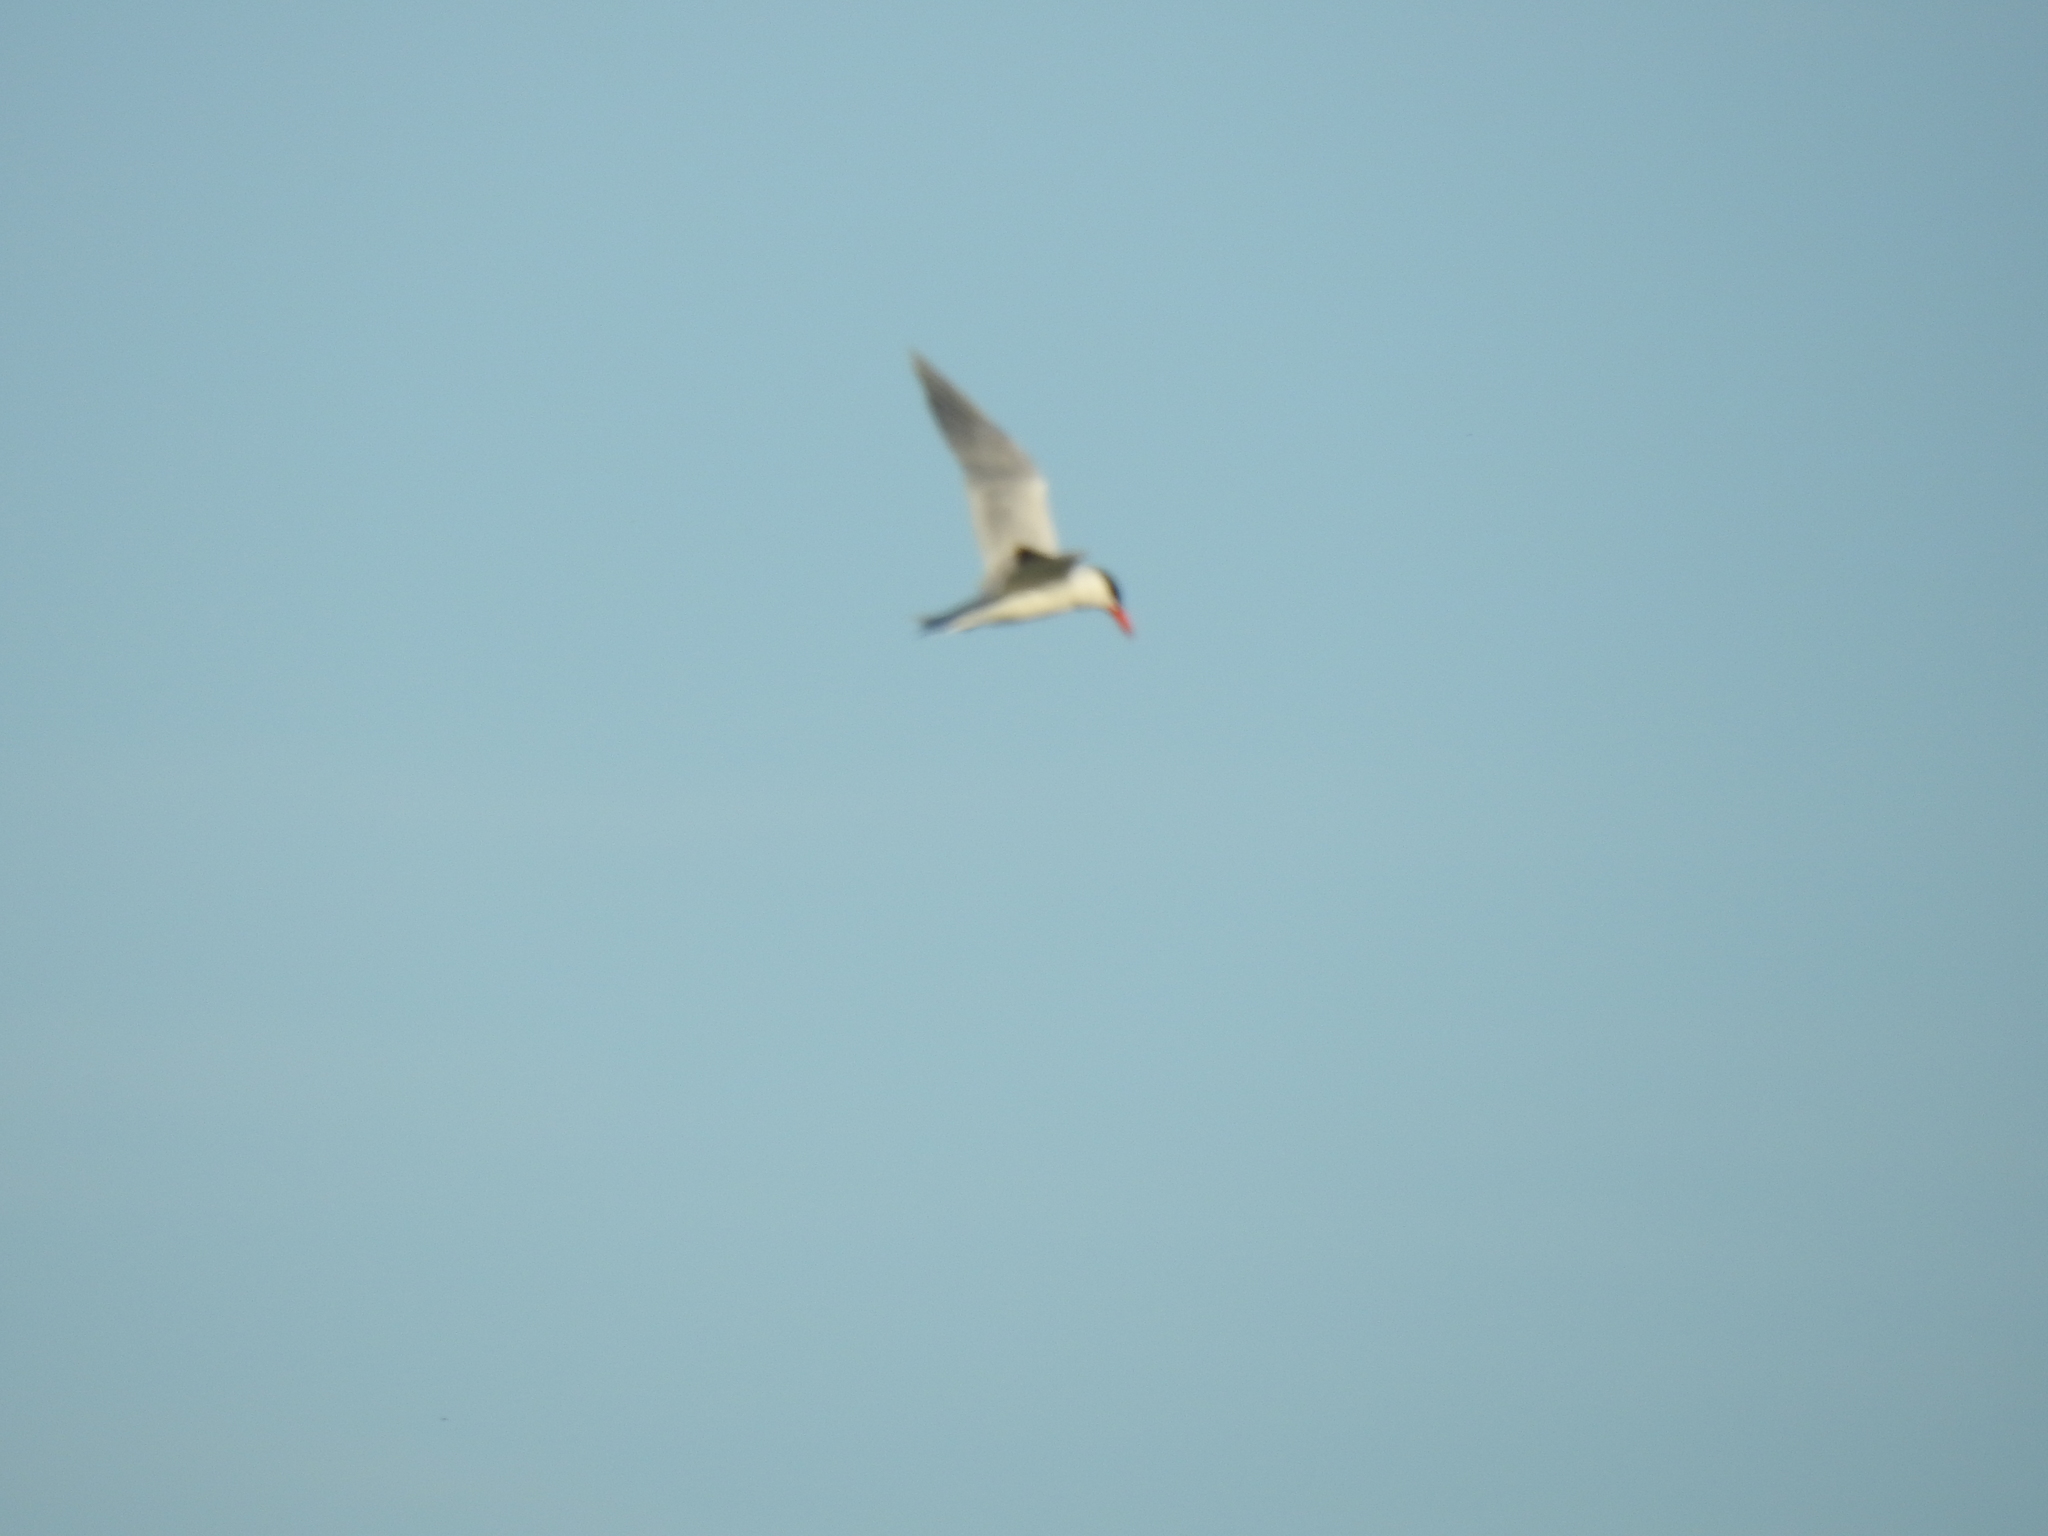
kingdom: Animalia
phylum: Chordata
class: Aves
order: Charadriiformes
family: Laridae
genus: Hydroprogne
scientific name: Hydroprogne caspia
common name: Caspian tern
